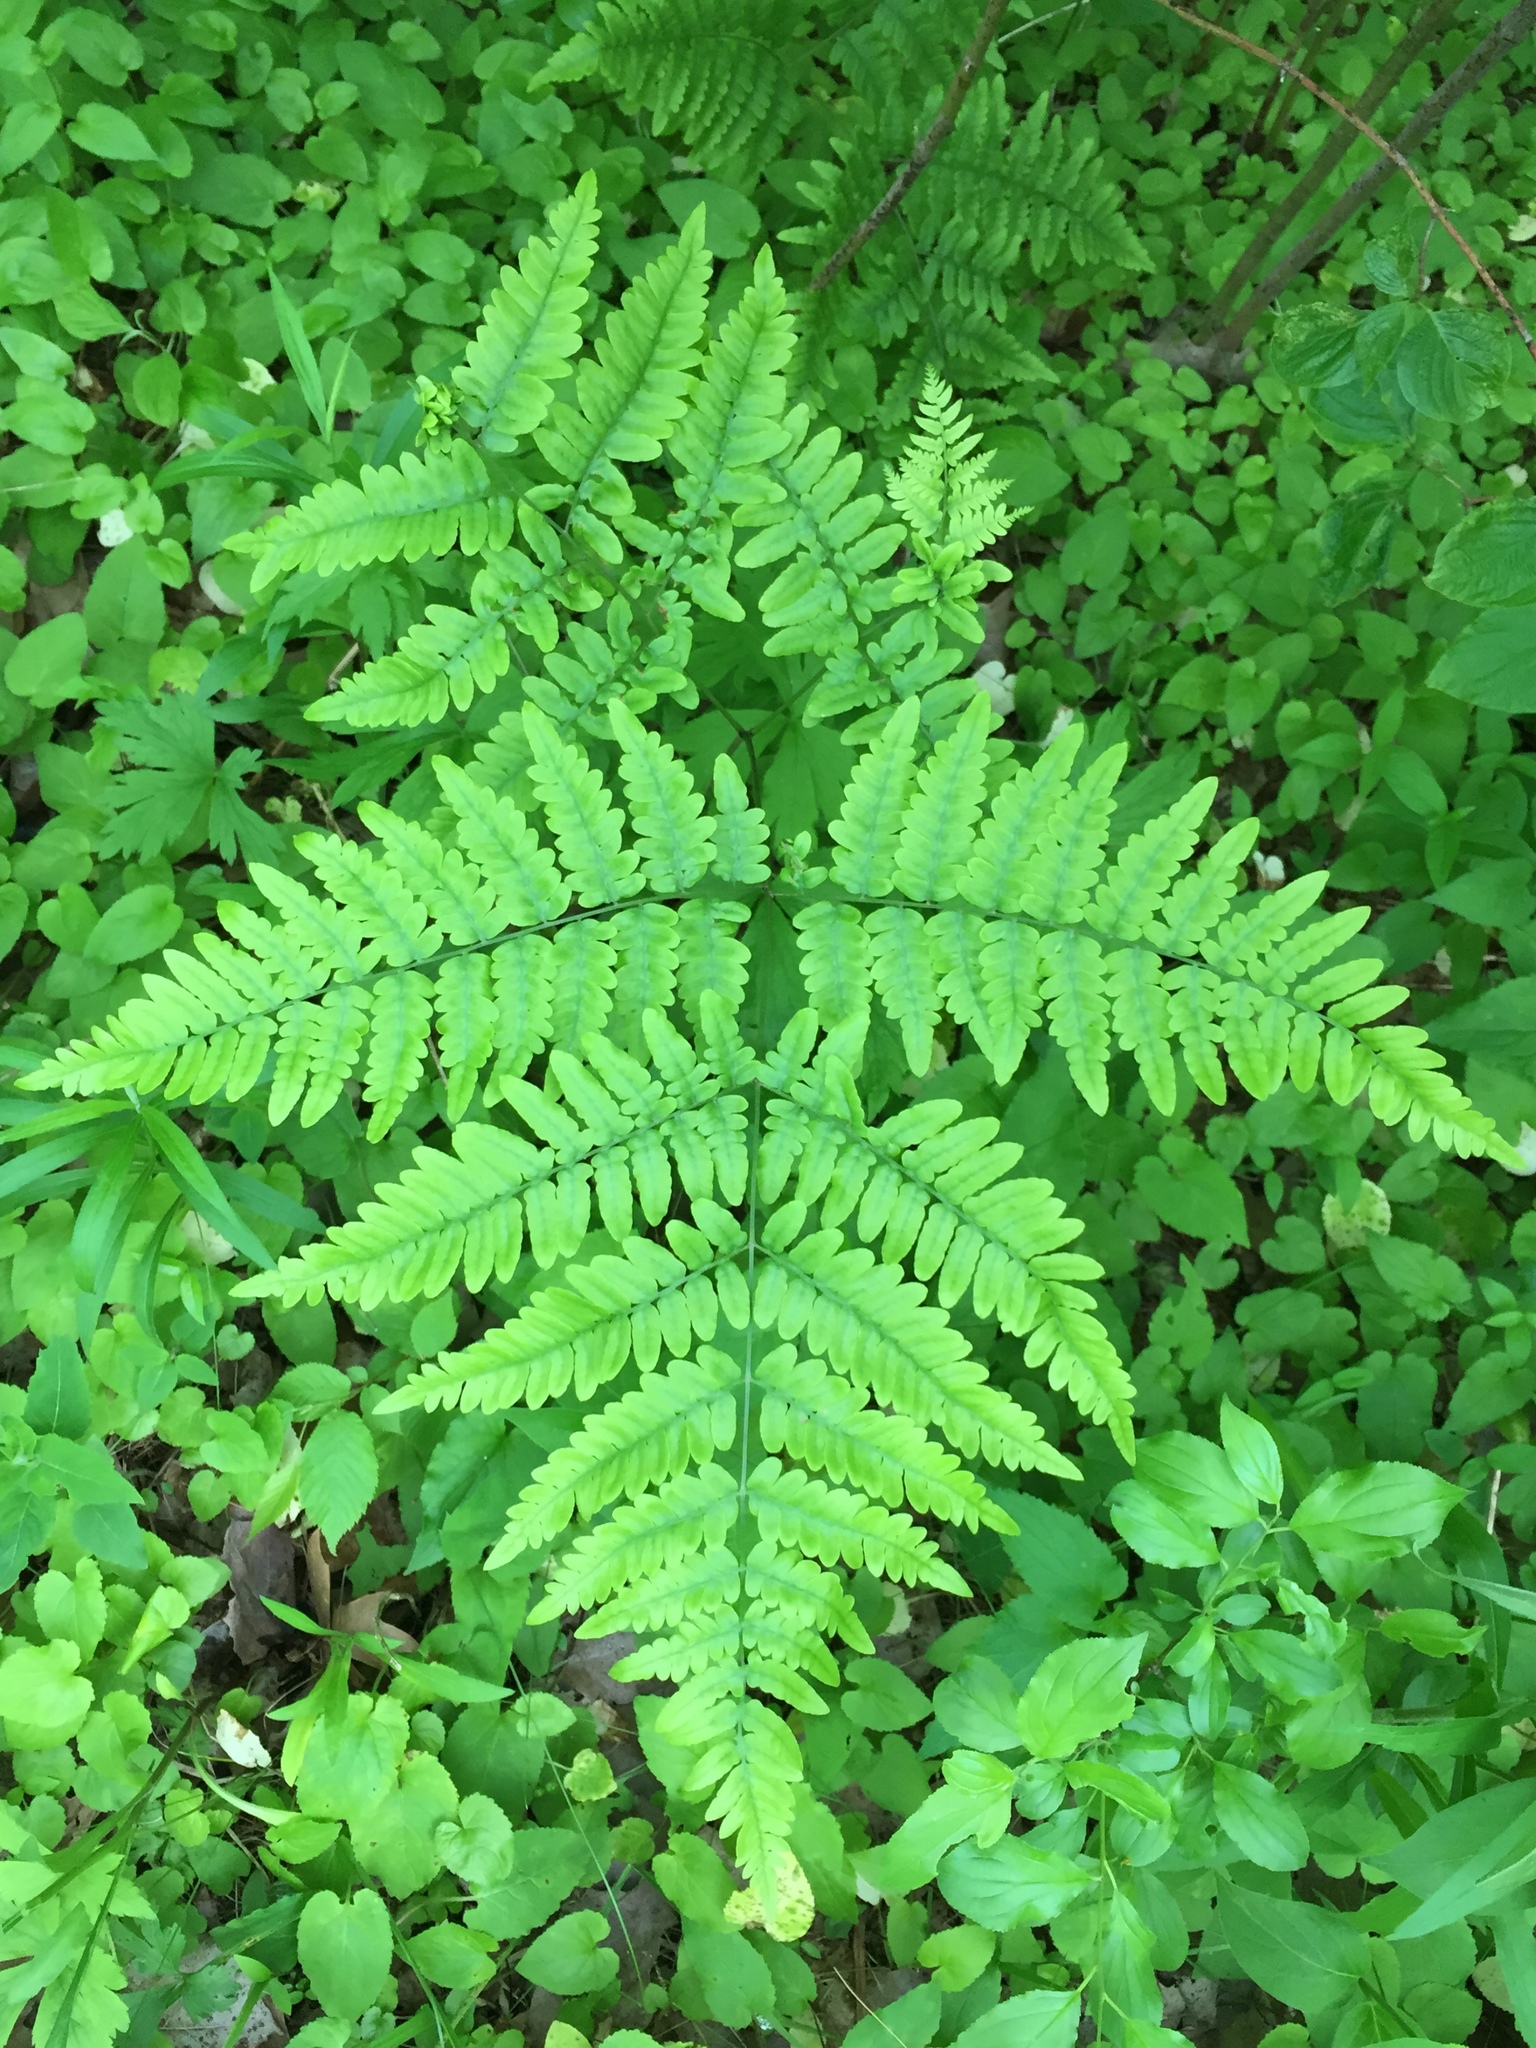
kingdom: Plantae
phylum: Tracheophyta
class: Polypodiopsida
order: Polypodiales
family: Dennstaedtiaceae
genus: Pteridium
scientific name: Pteridium aquilinum
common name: Bracken
